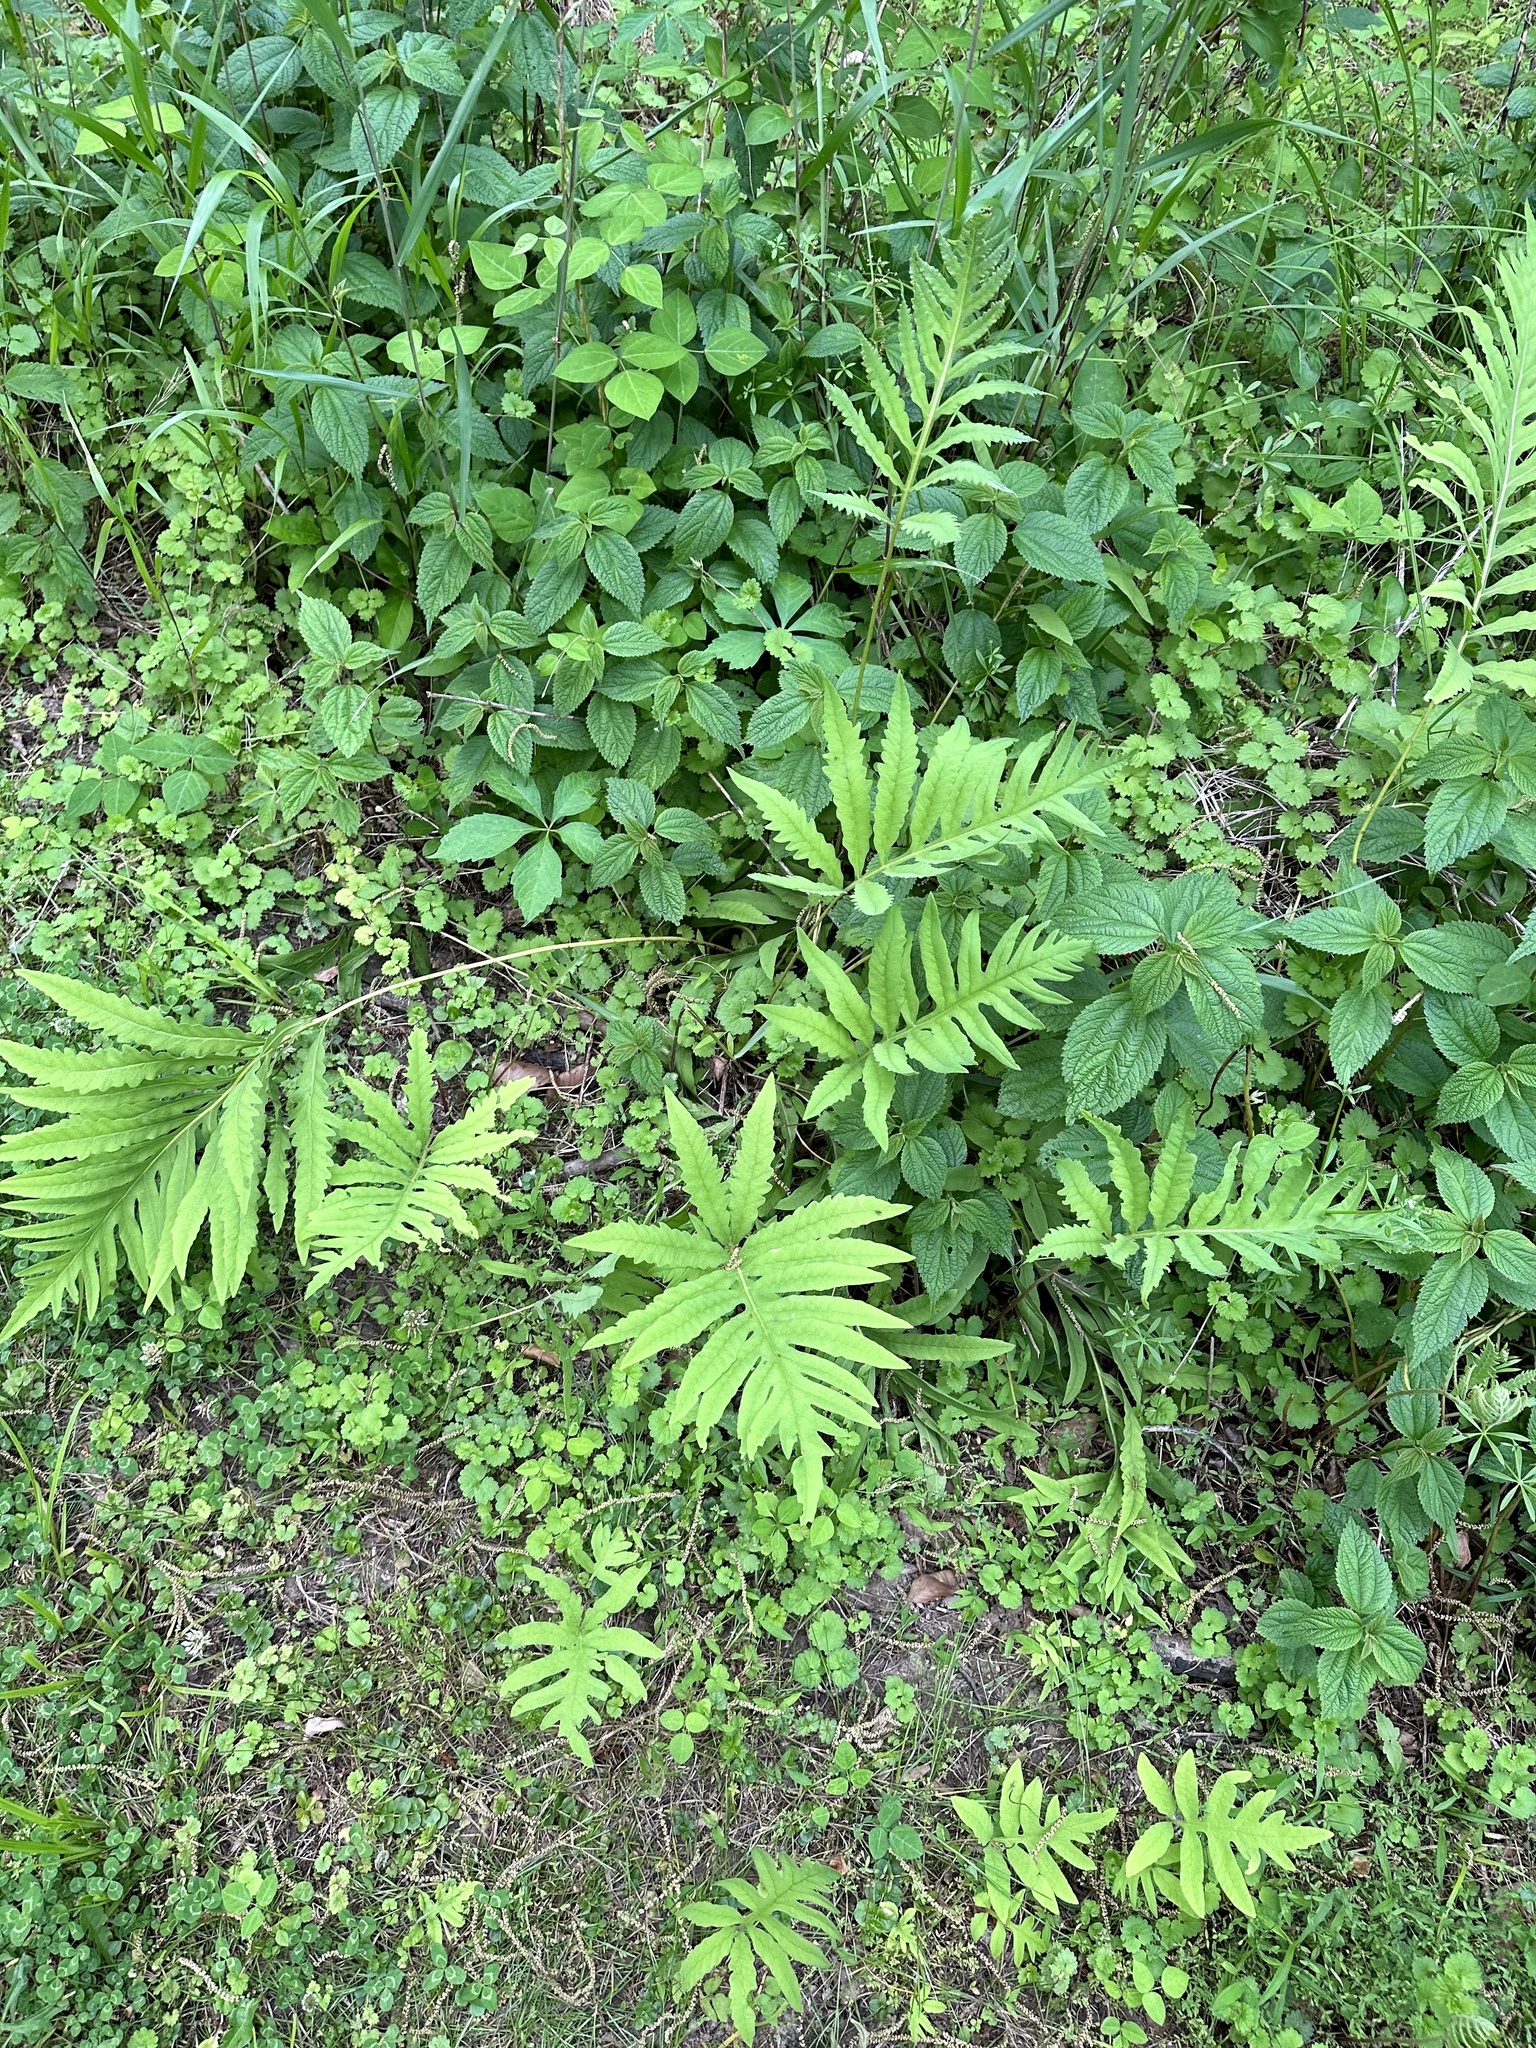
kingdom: Plantae
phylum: Tracheophyta
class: Polypodiopsida
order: Polypodiales
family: Onocleaceae
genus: Onoclea
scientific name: Onoclea sensibilis
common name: Sensitive fern
